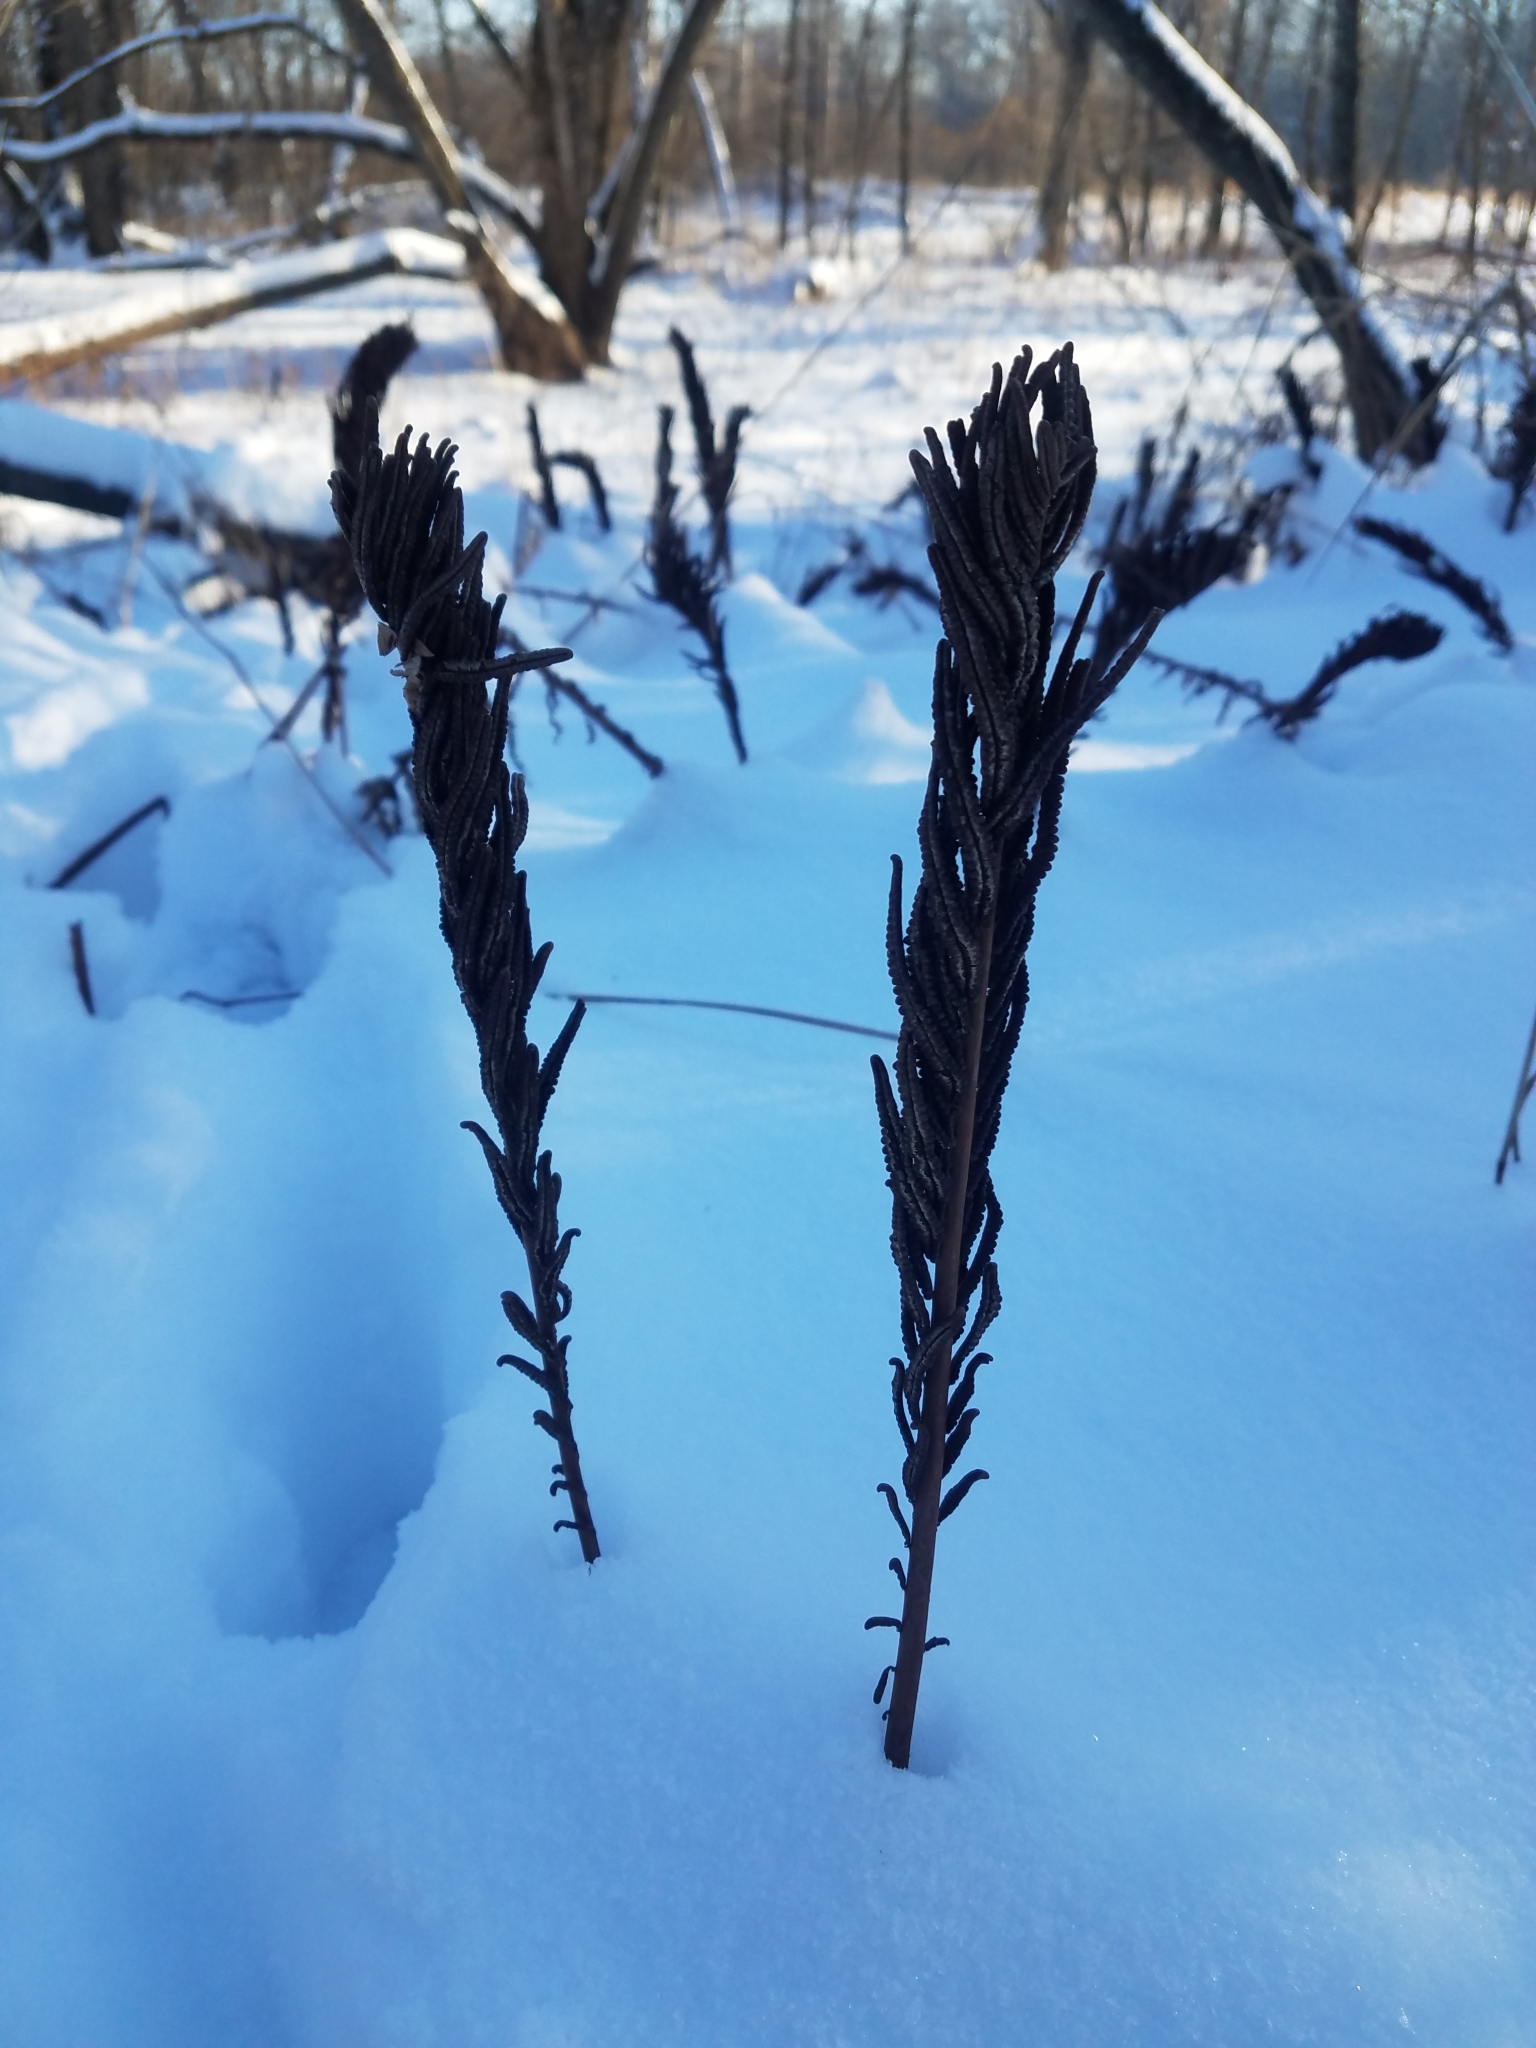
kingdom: Plantae
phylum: Tracheophyta
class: Polypodiopsida
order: Polypodiales
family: Onocleaceae
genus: Matteuccia
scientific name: Matteuccia struthiopteris
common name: Ostrich fern
